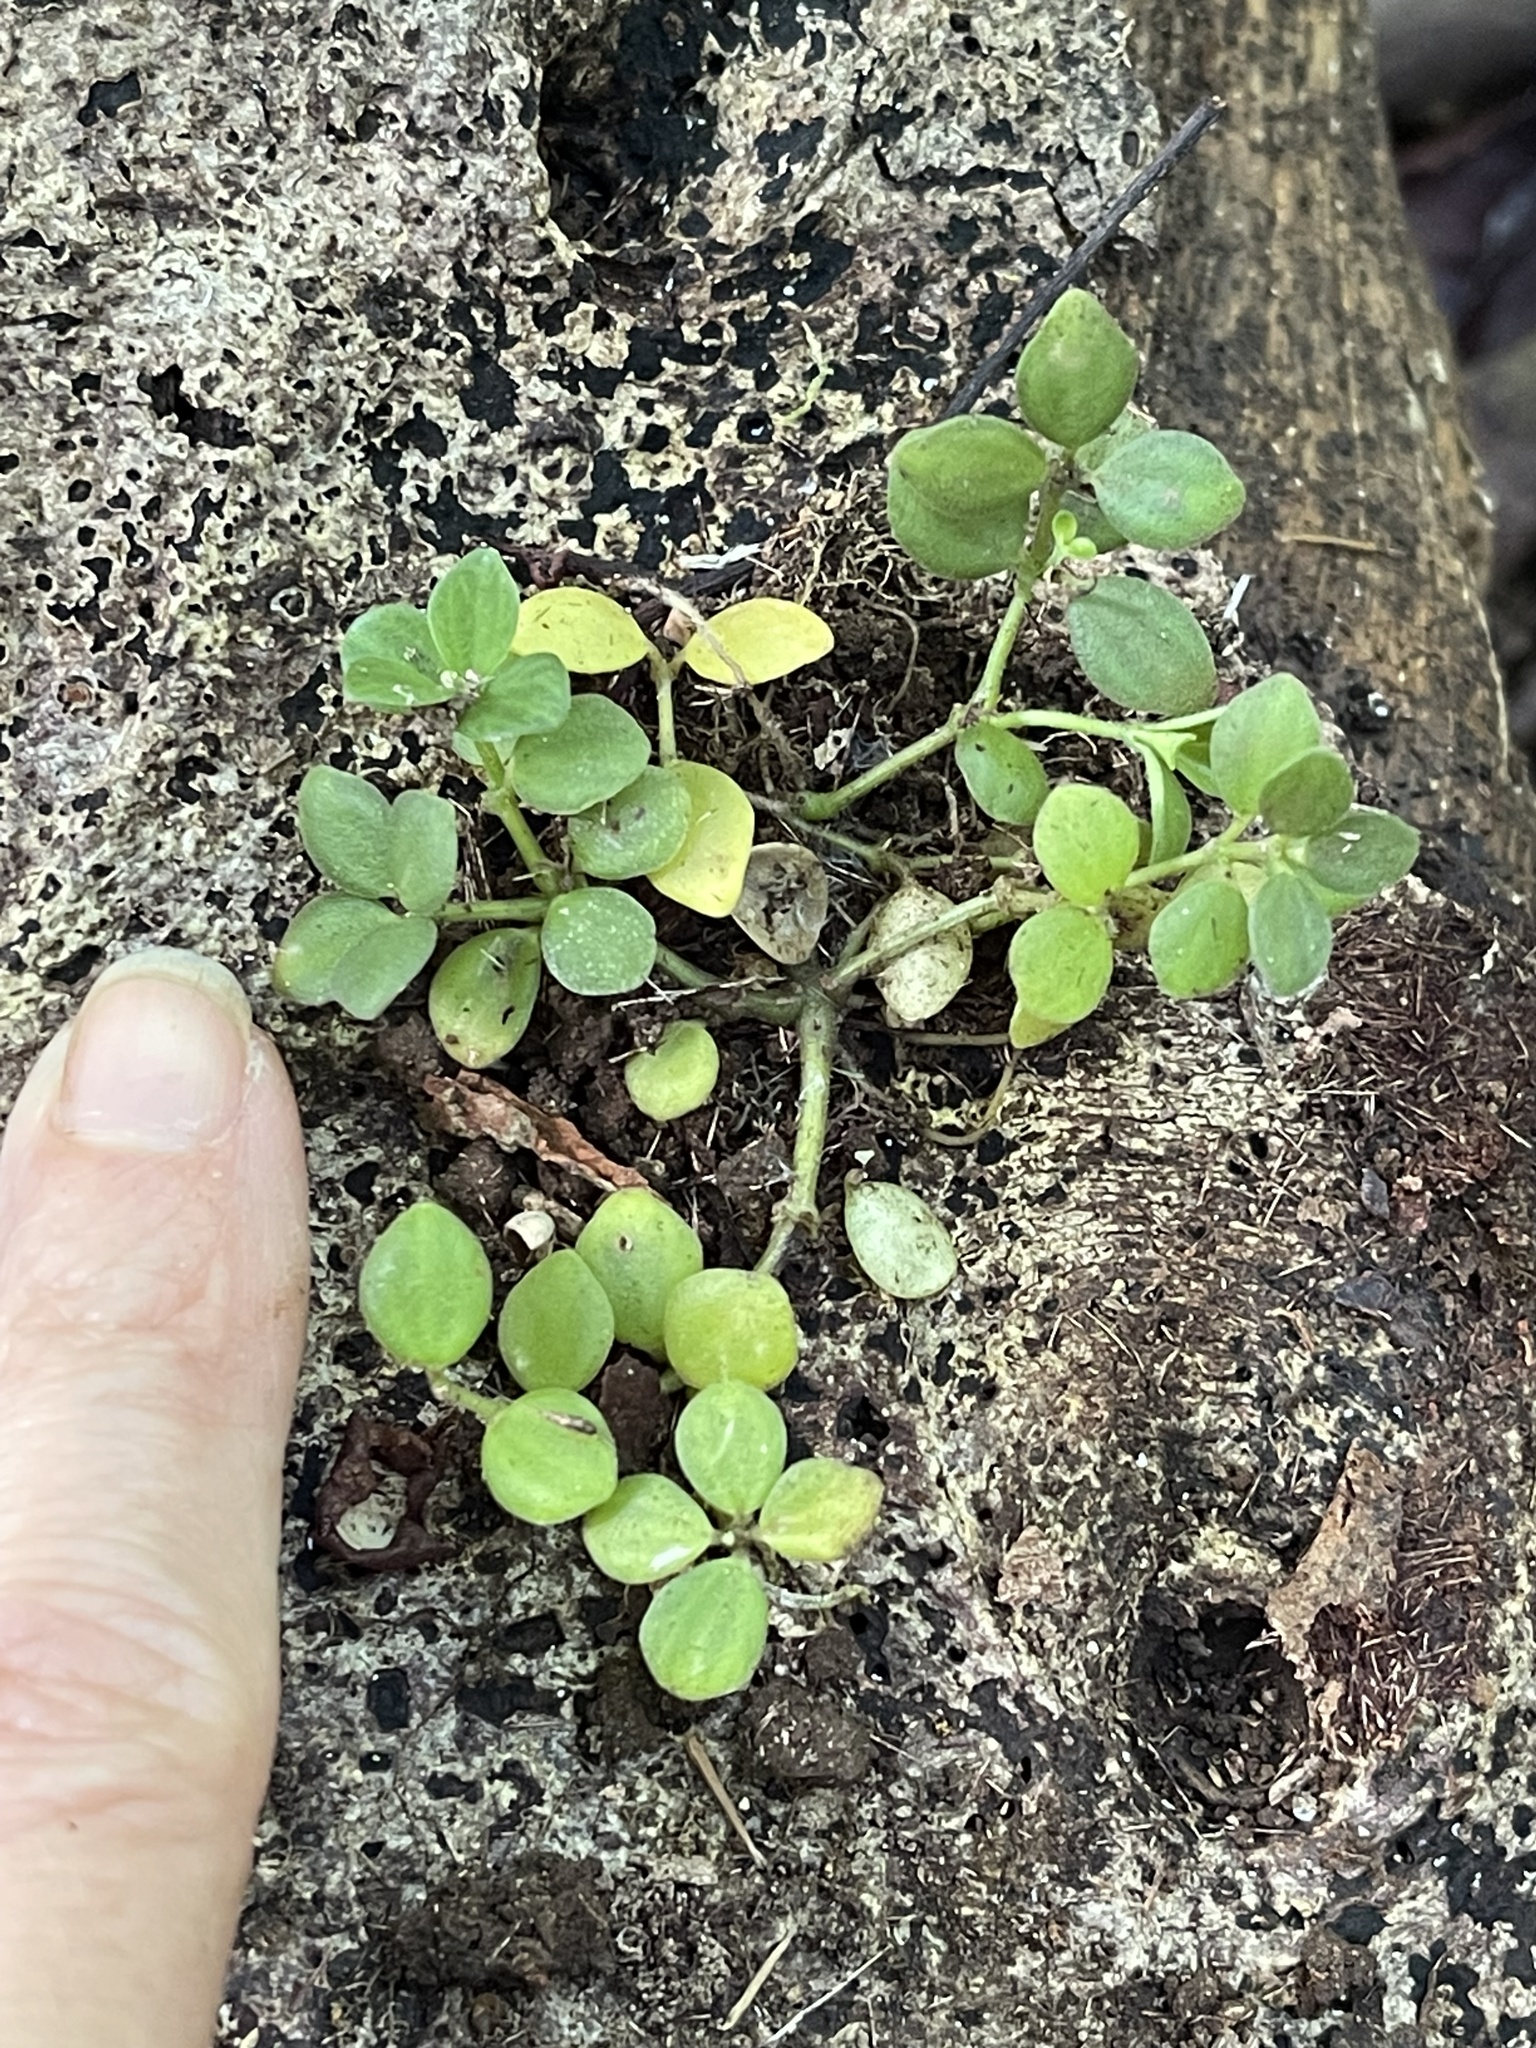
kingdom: Plantae
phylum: Tracheophyta
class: Magnoliopsida
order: Piperales
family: Piperaceae
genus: Peperomia
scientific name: Peperomia tetraphylla
